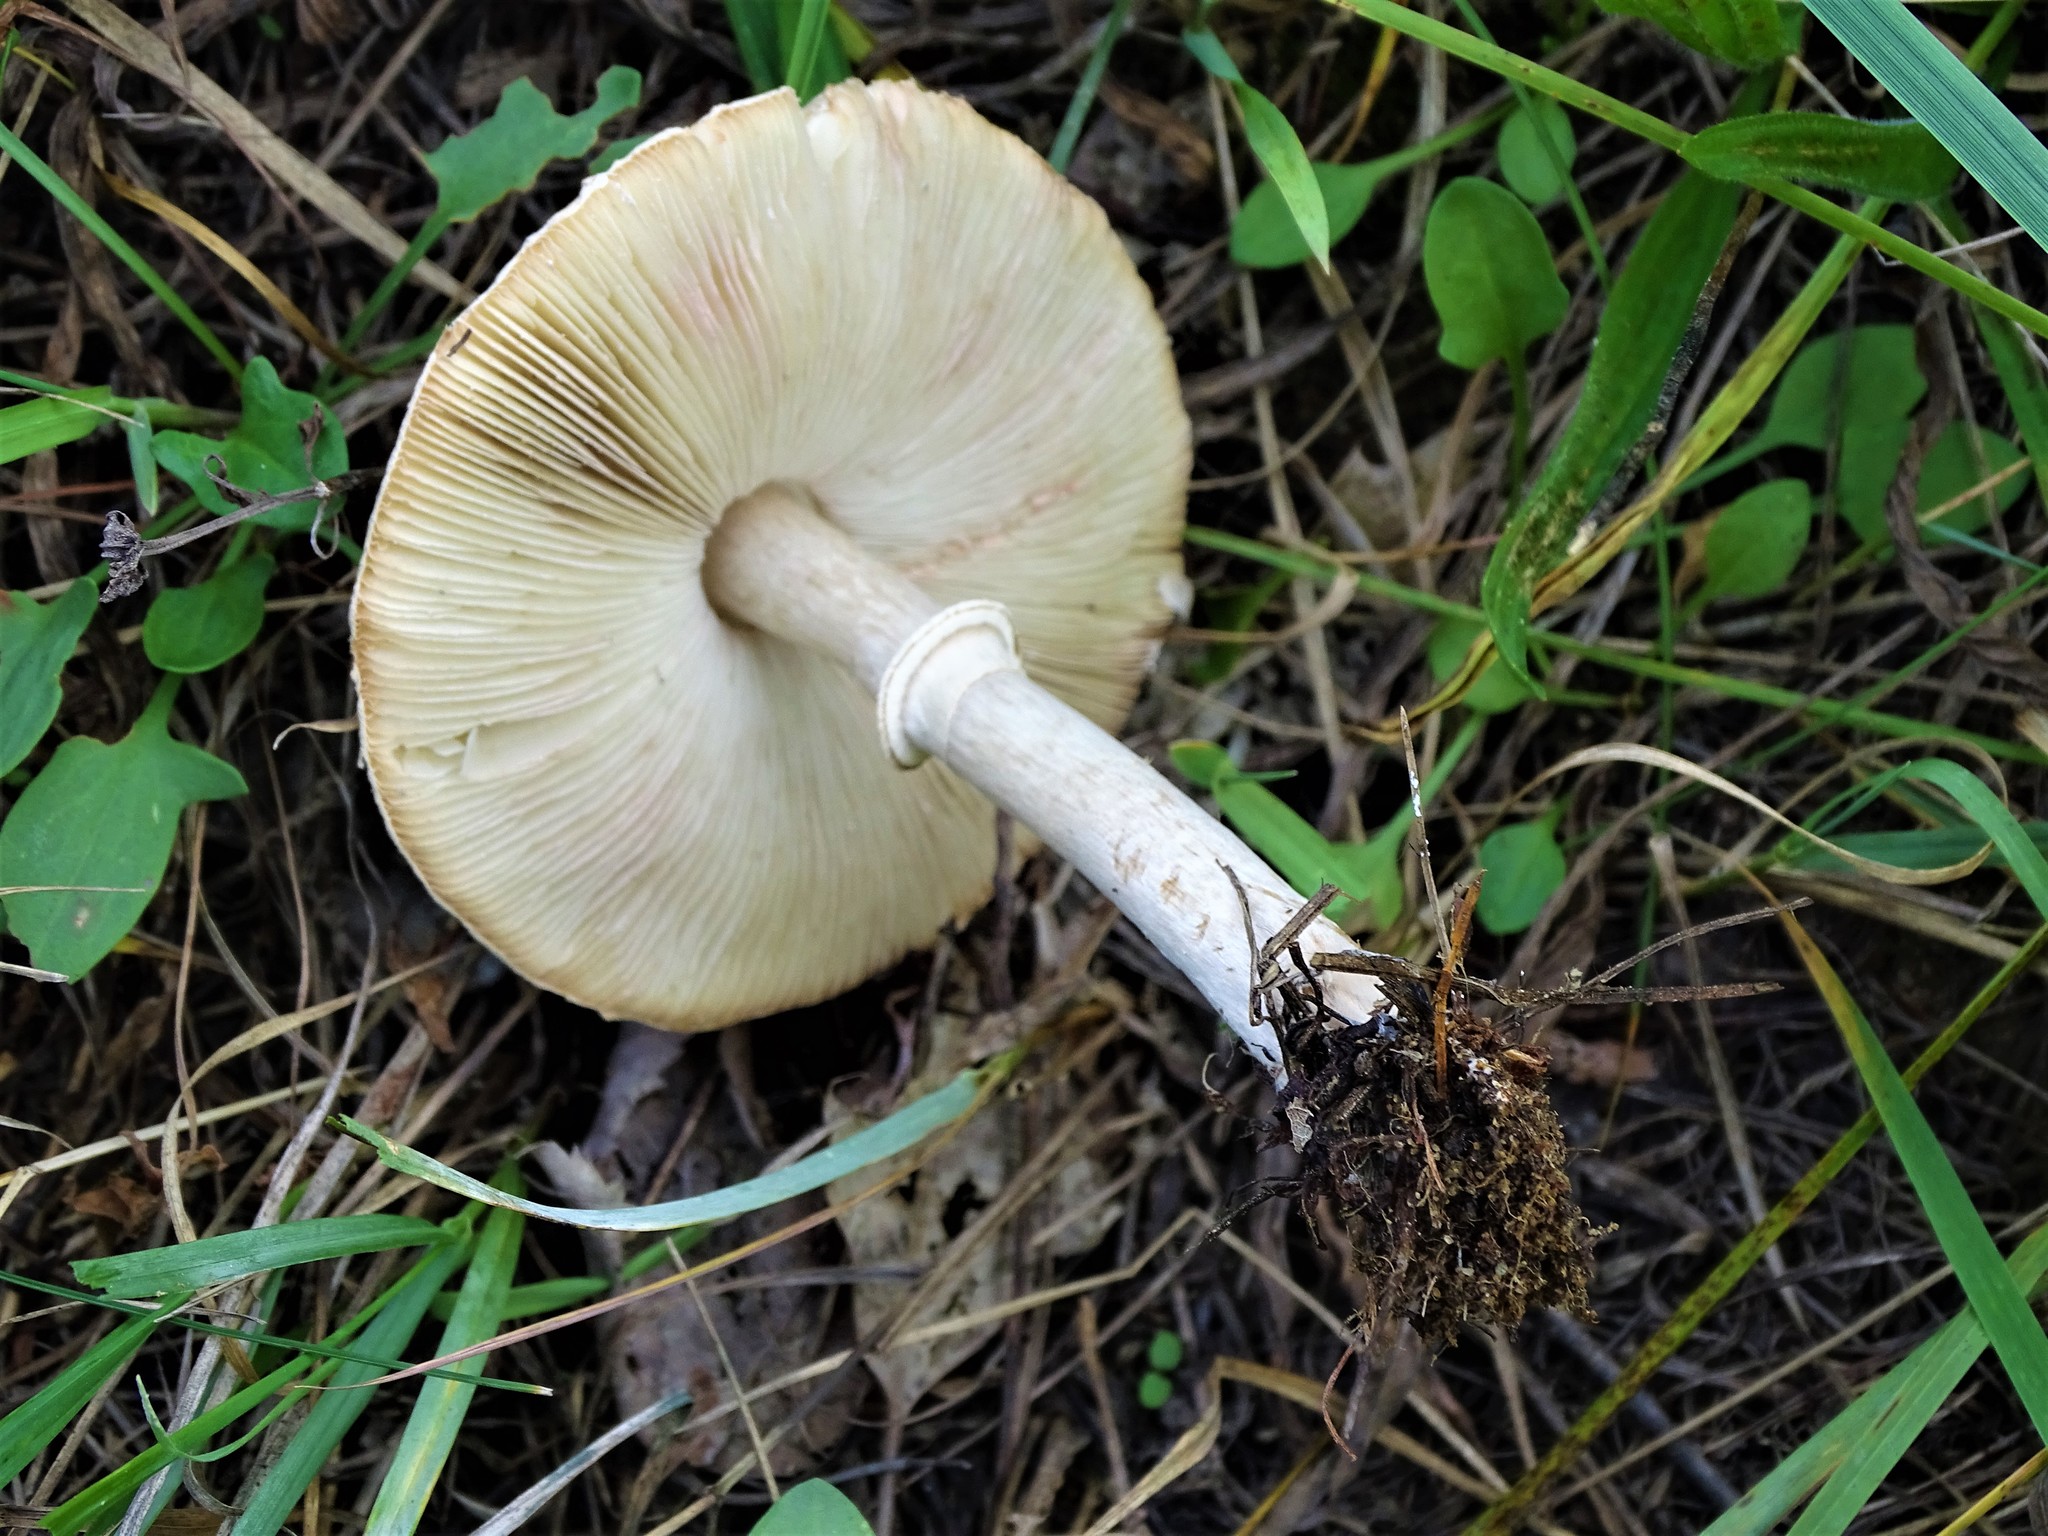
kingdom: Fungi
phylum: Basidiomycota
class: Agaricomycetes
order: Agaricales
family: Agaricaceae
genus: Leucoagaricus
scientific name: Leucoagaricus leucothites
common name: White dapperling
